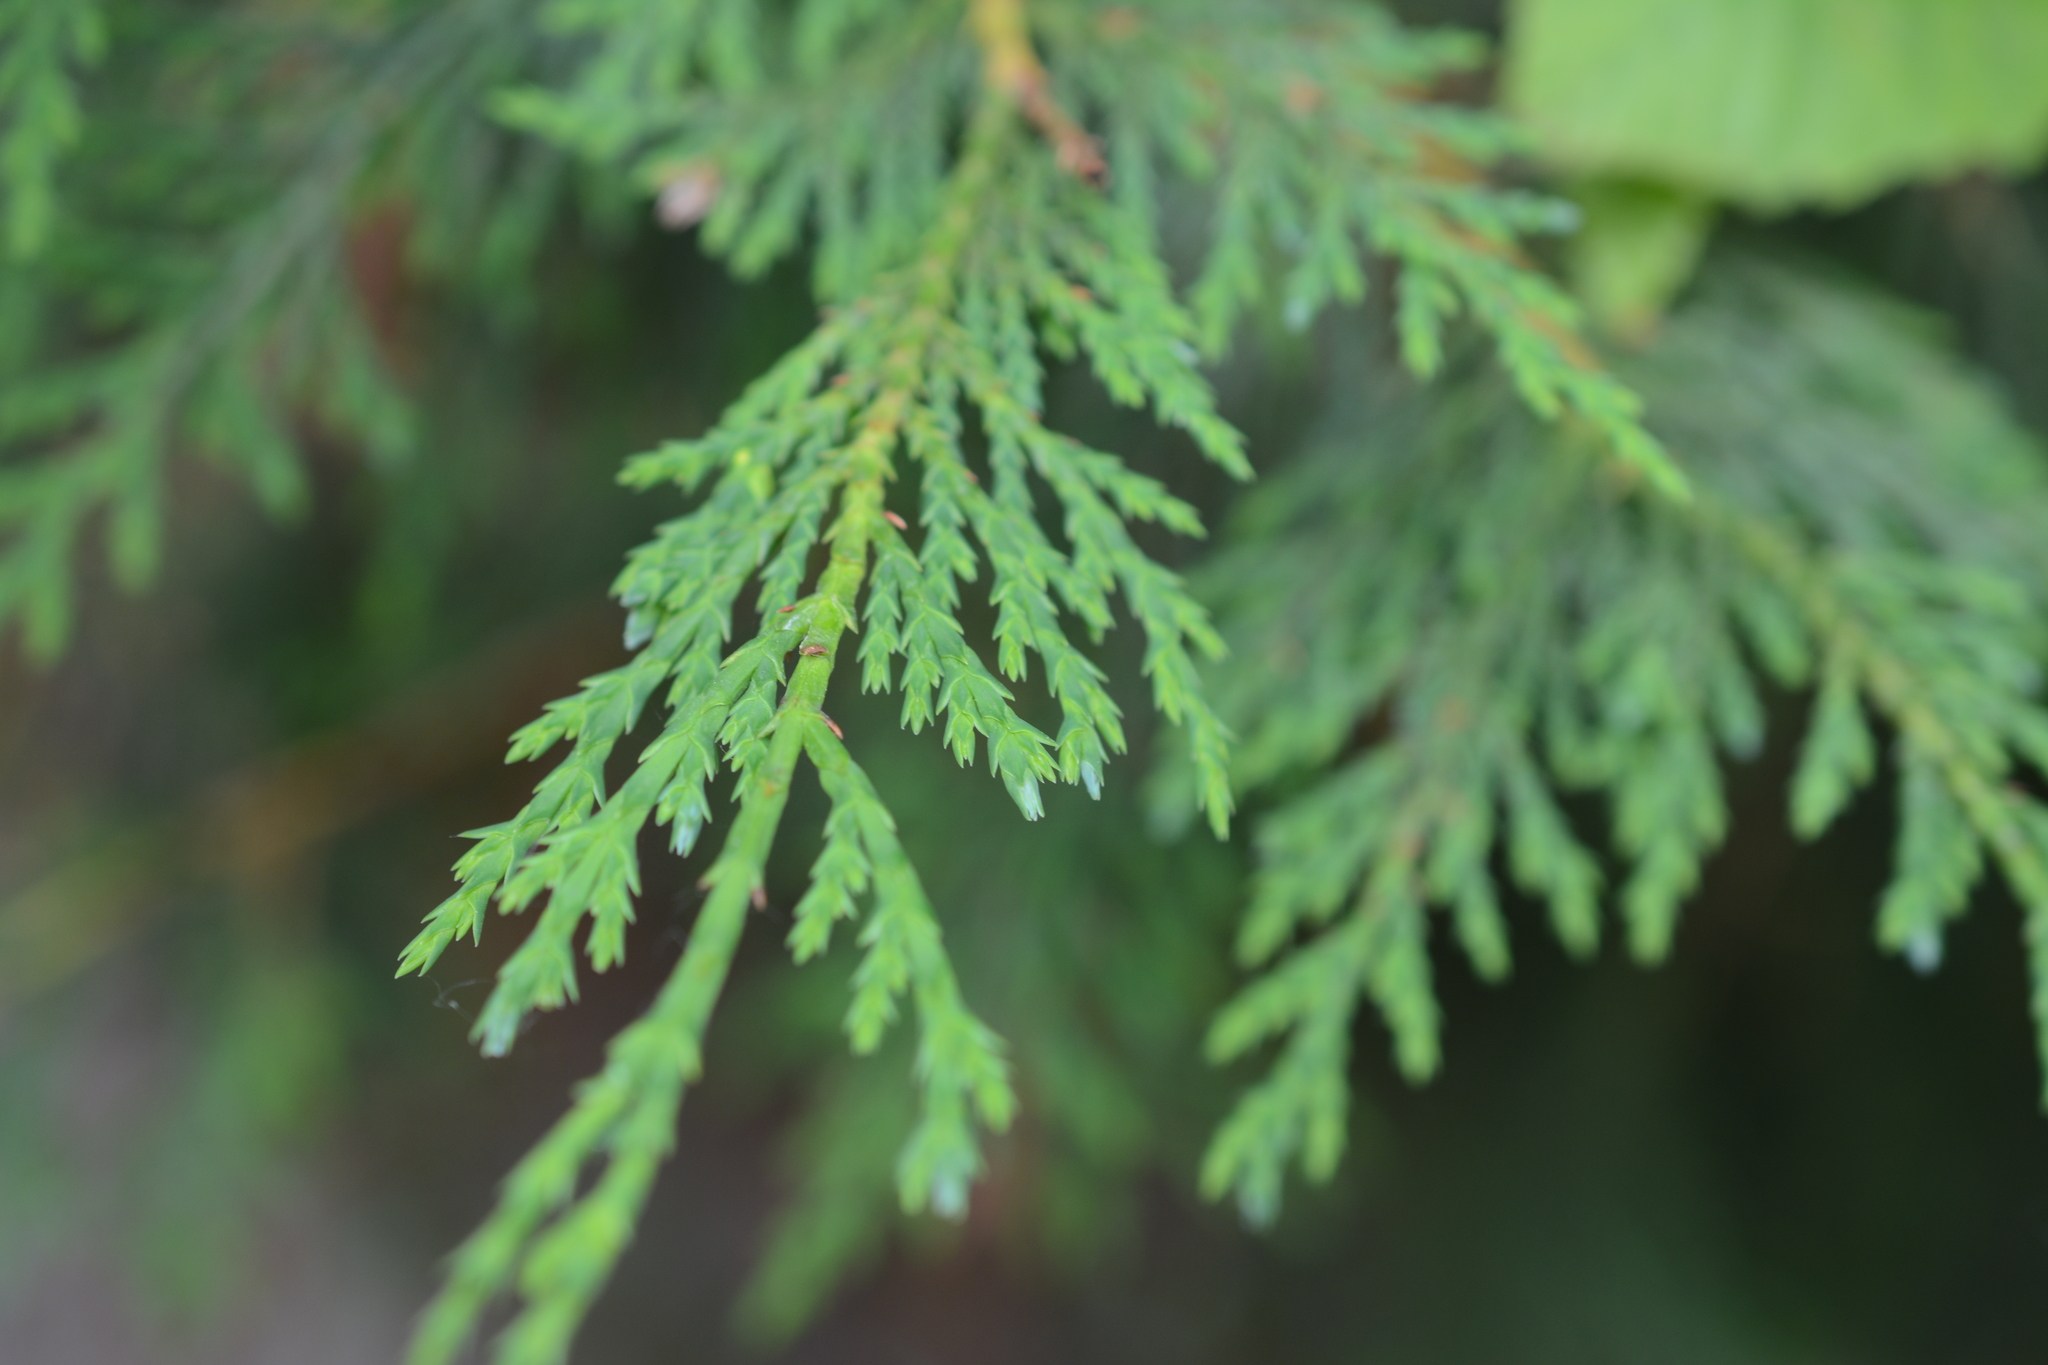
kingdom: Plantae
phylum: Tracheophyta
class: Pinopsida
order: Pinales
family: Cupressaceae
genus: Xanthocyparis
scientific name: Xanthocyparis nootkatensis
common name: Nootka cypress
